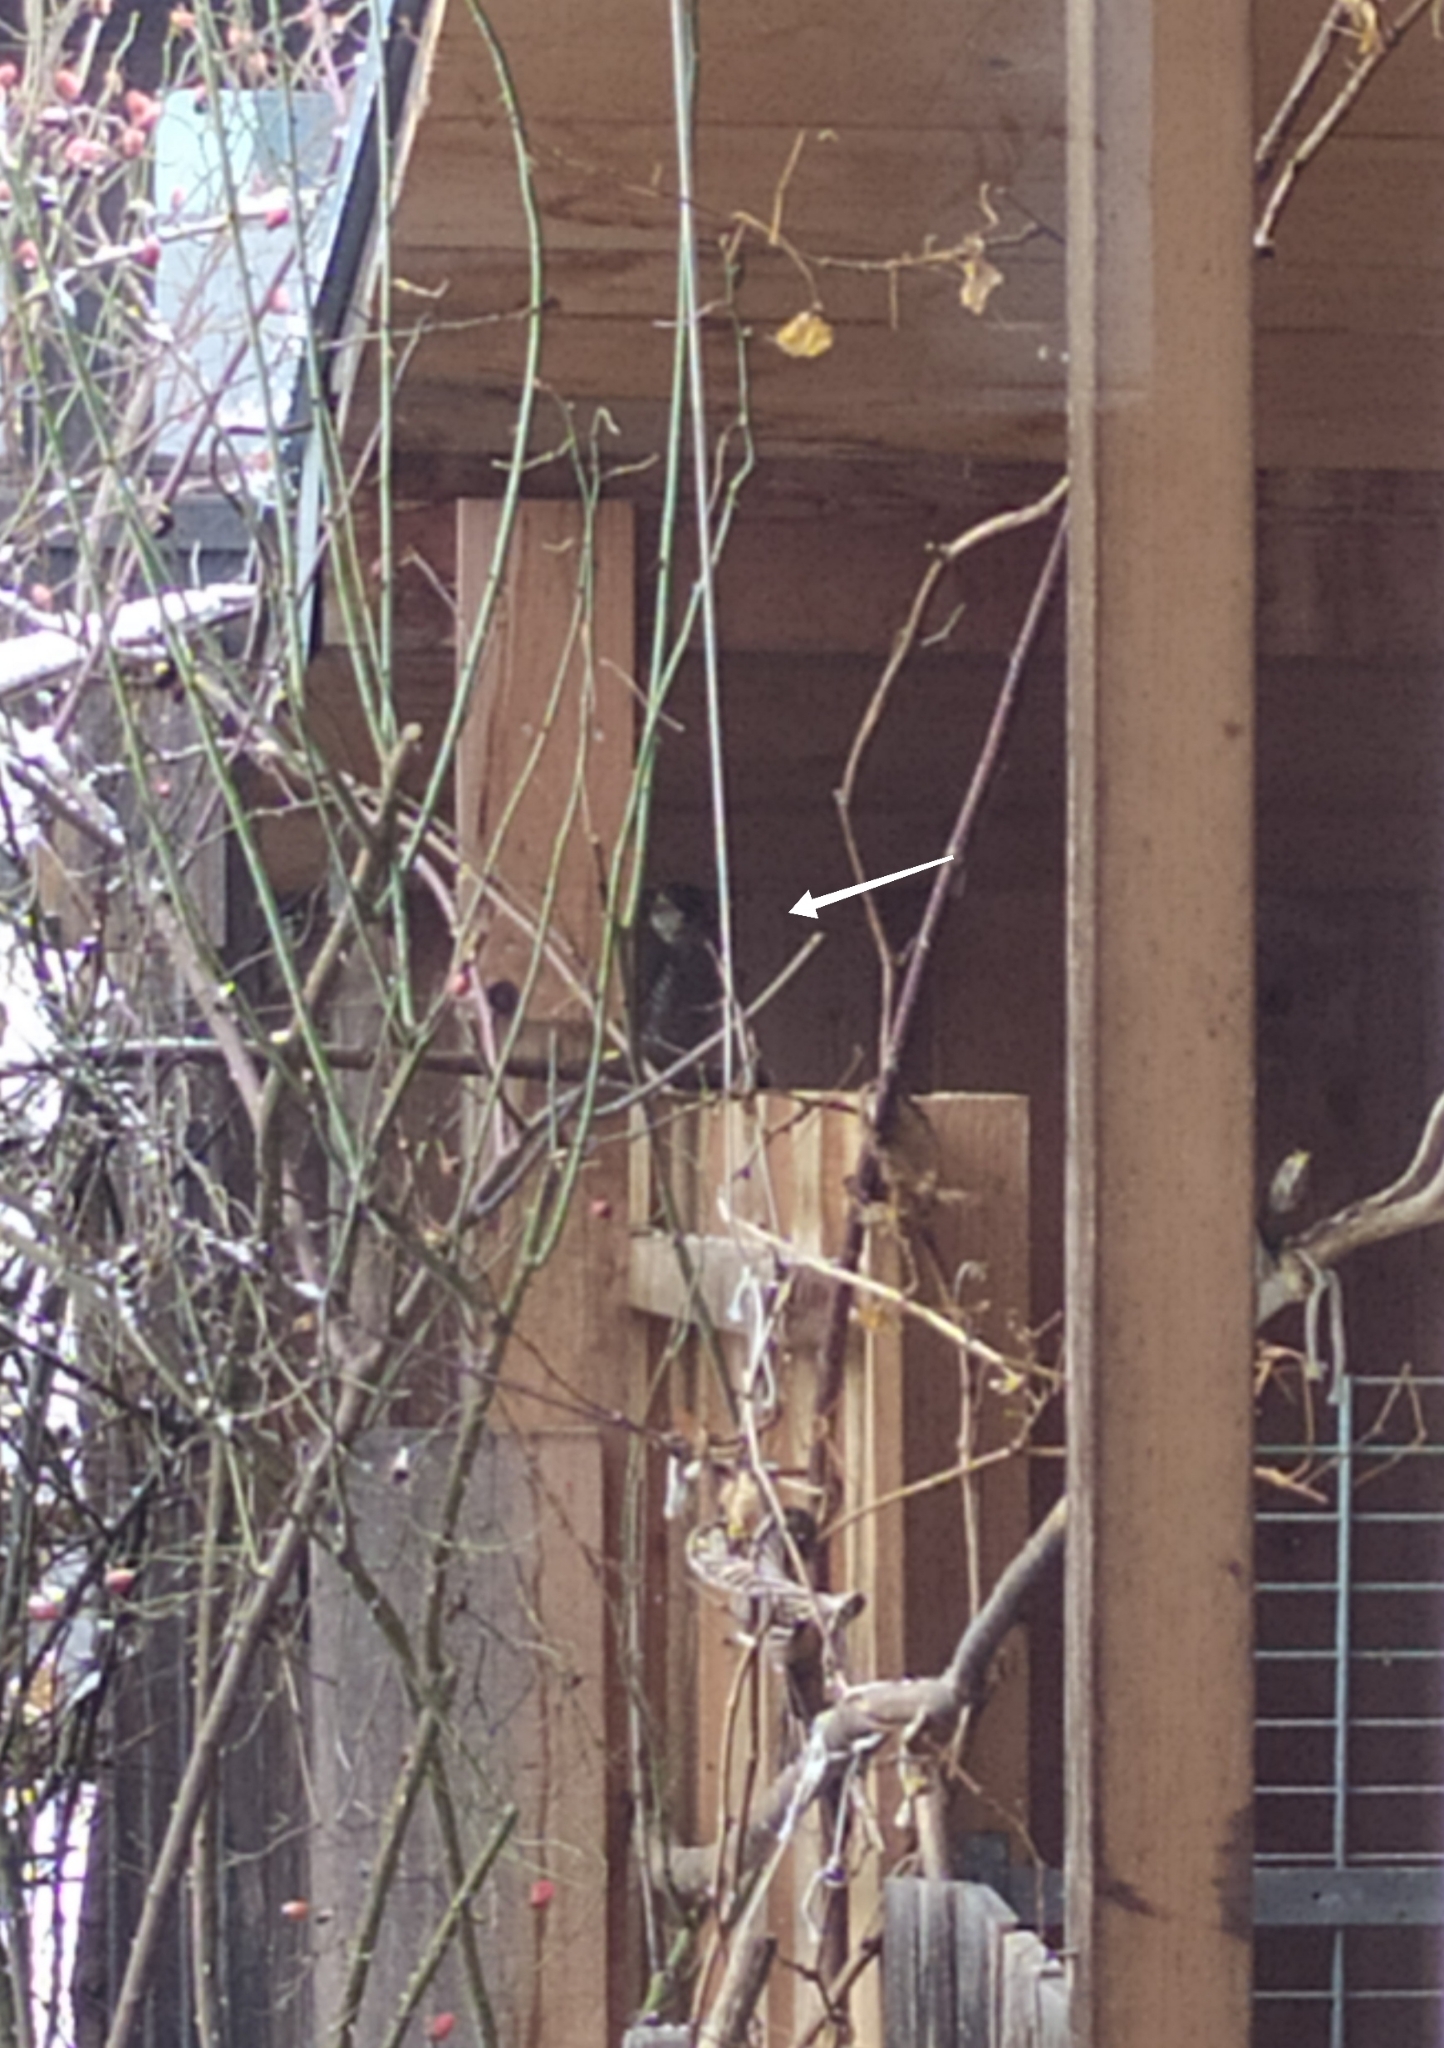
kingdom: Animalia
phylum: Chordata
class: Aves
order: Accipitriformes
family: Accipitridae
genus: Accipiter
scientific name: Accipiter nisus
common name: Eurasian sparrowhawk
